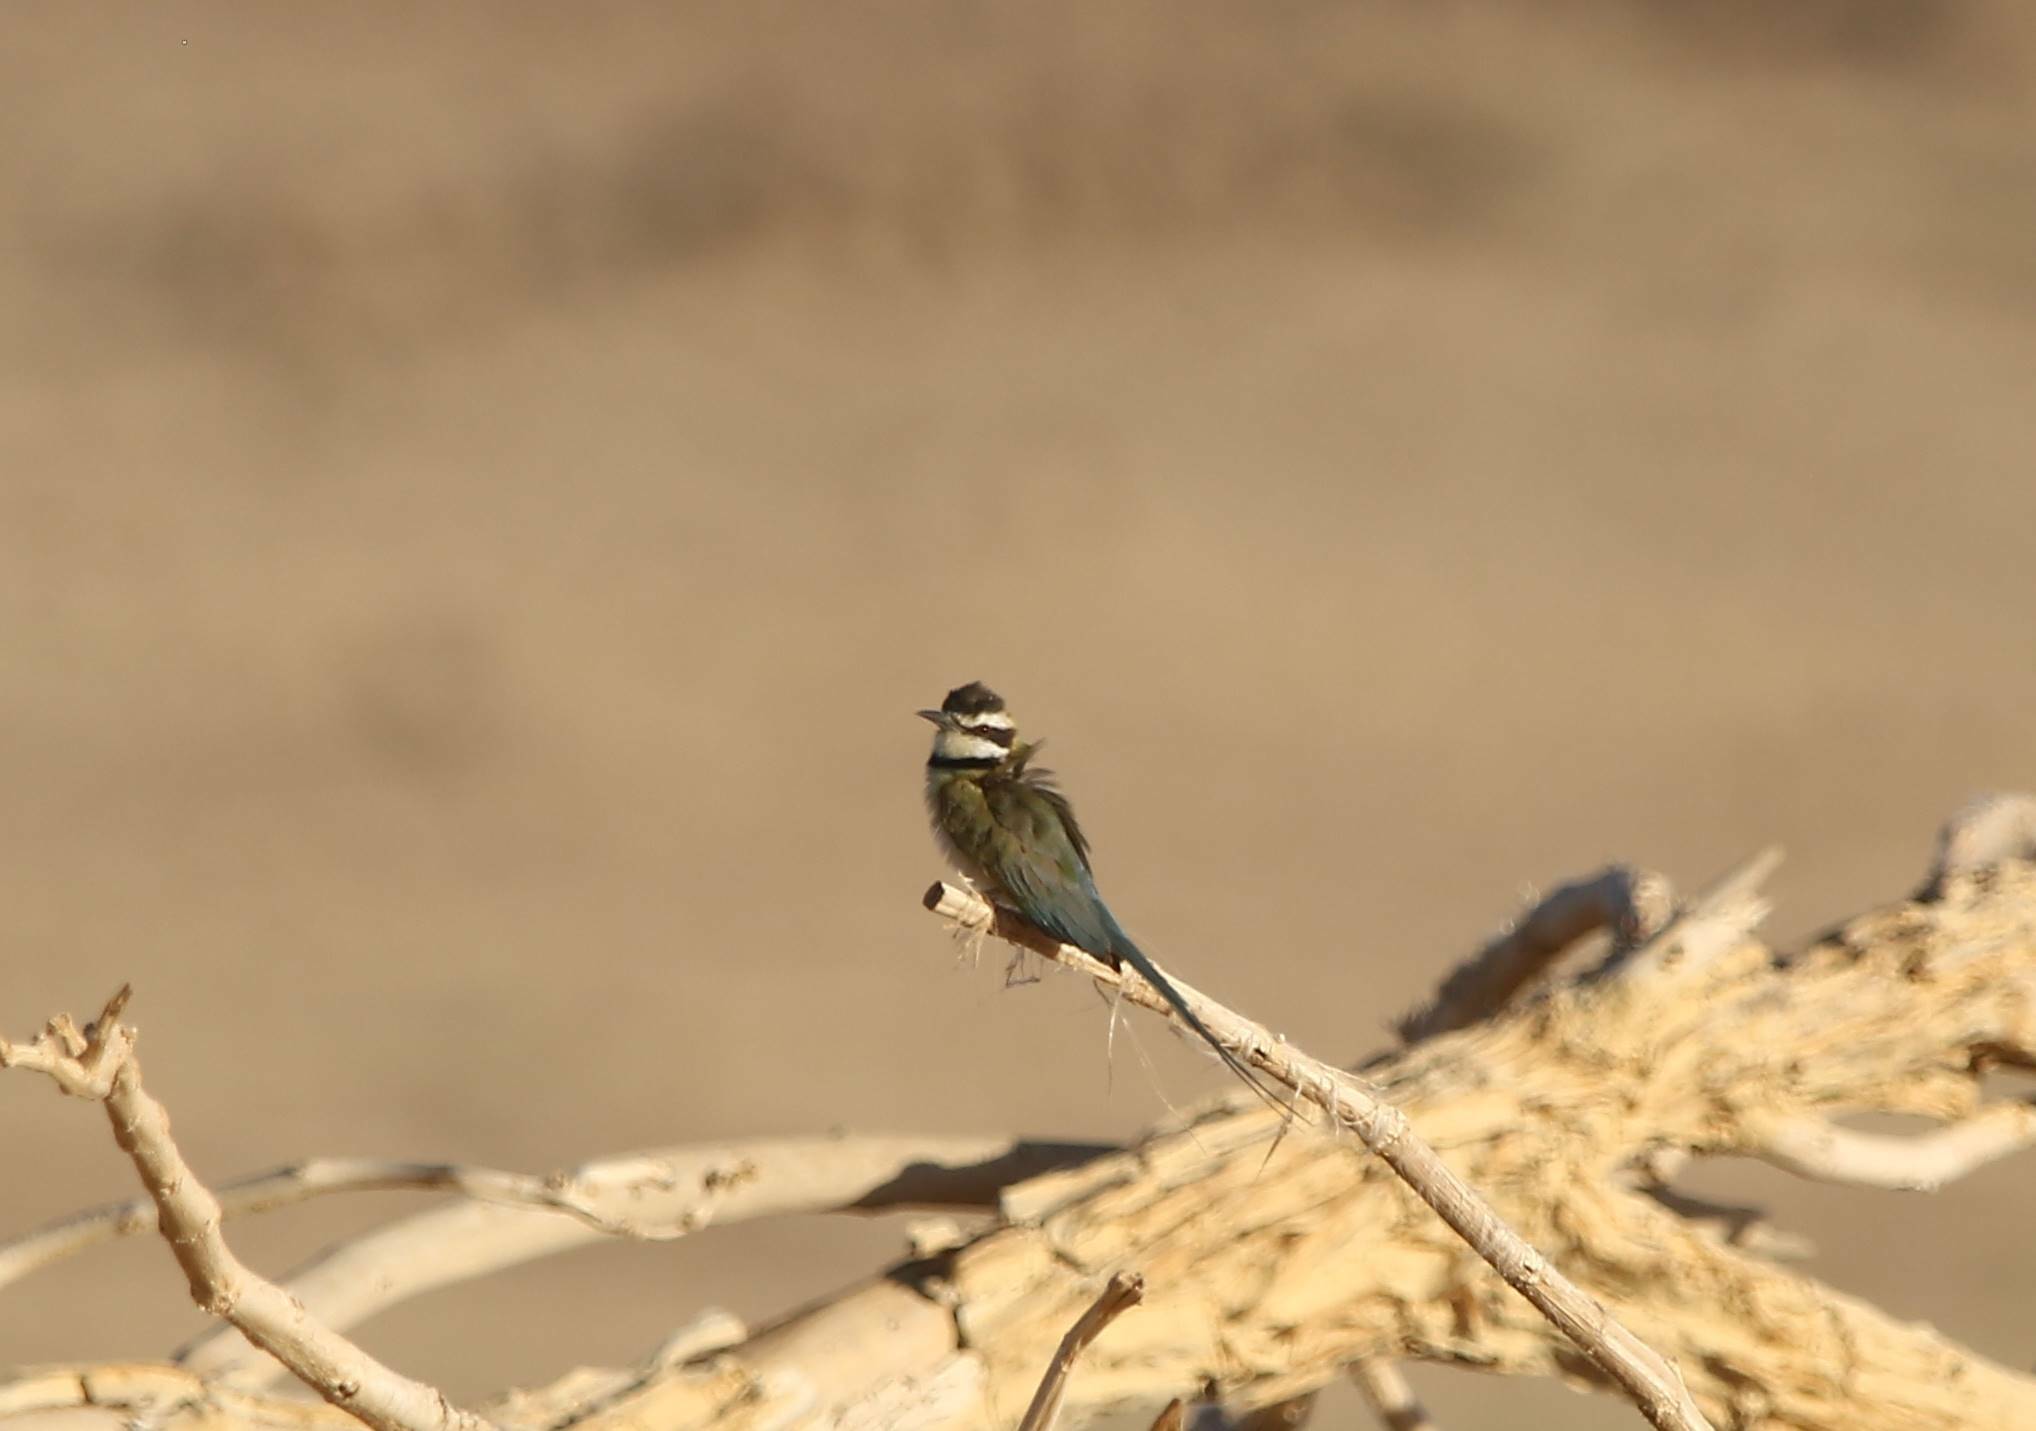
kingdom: Animalia
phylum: Chordata
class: Aves
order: Coraciiformes
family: Meropidae
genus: Merops
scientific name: Merops albicollis
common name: White-throated bee-eater
